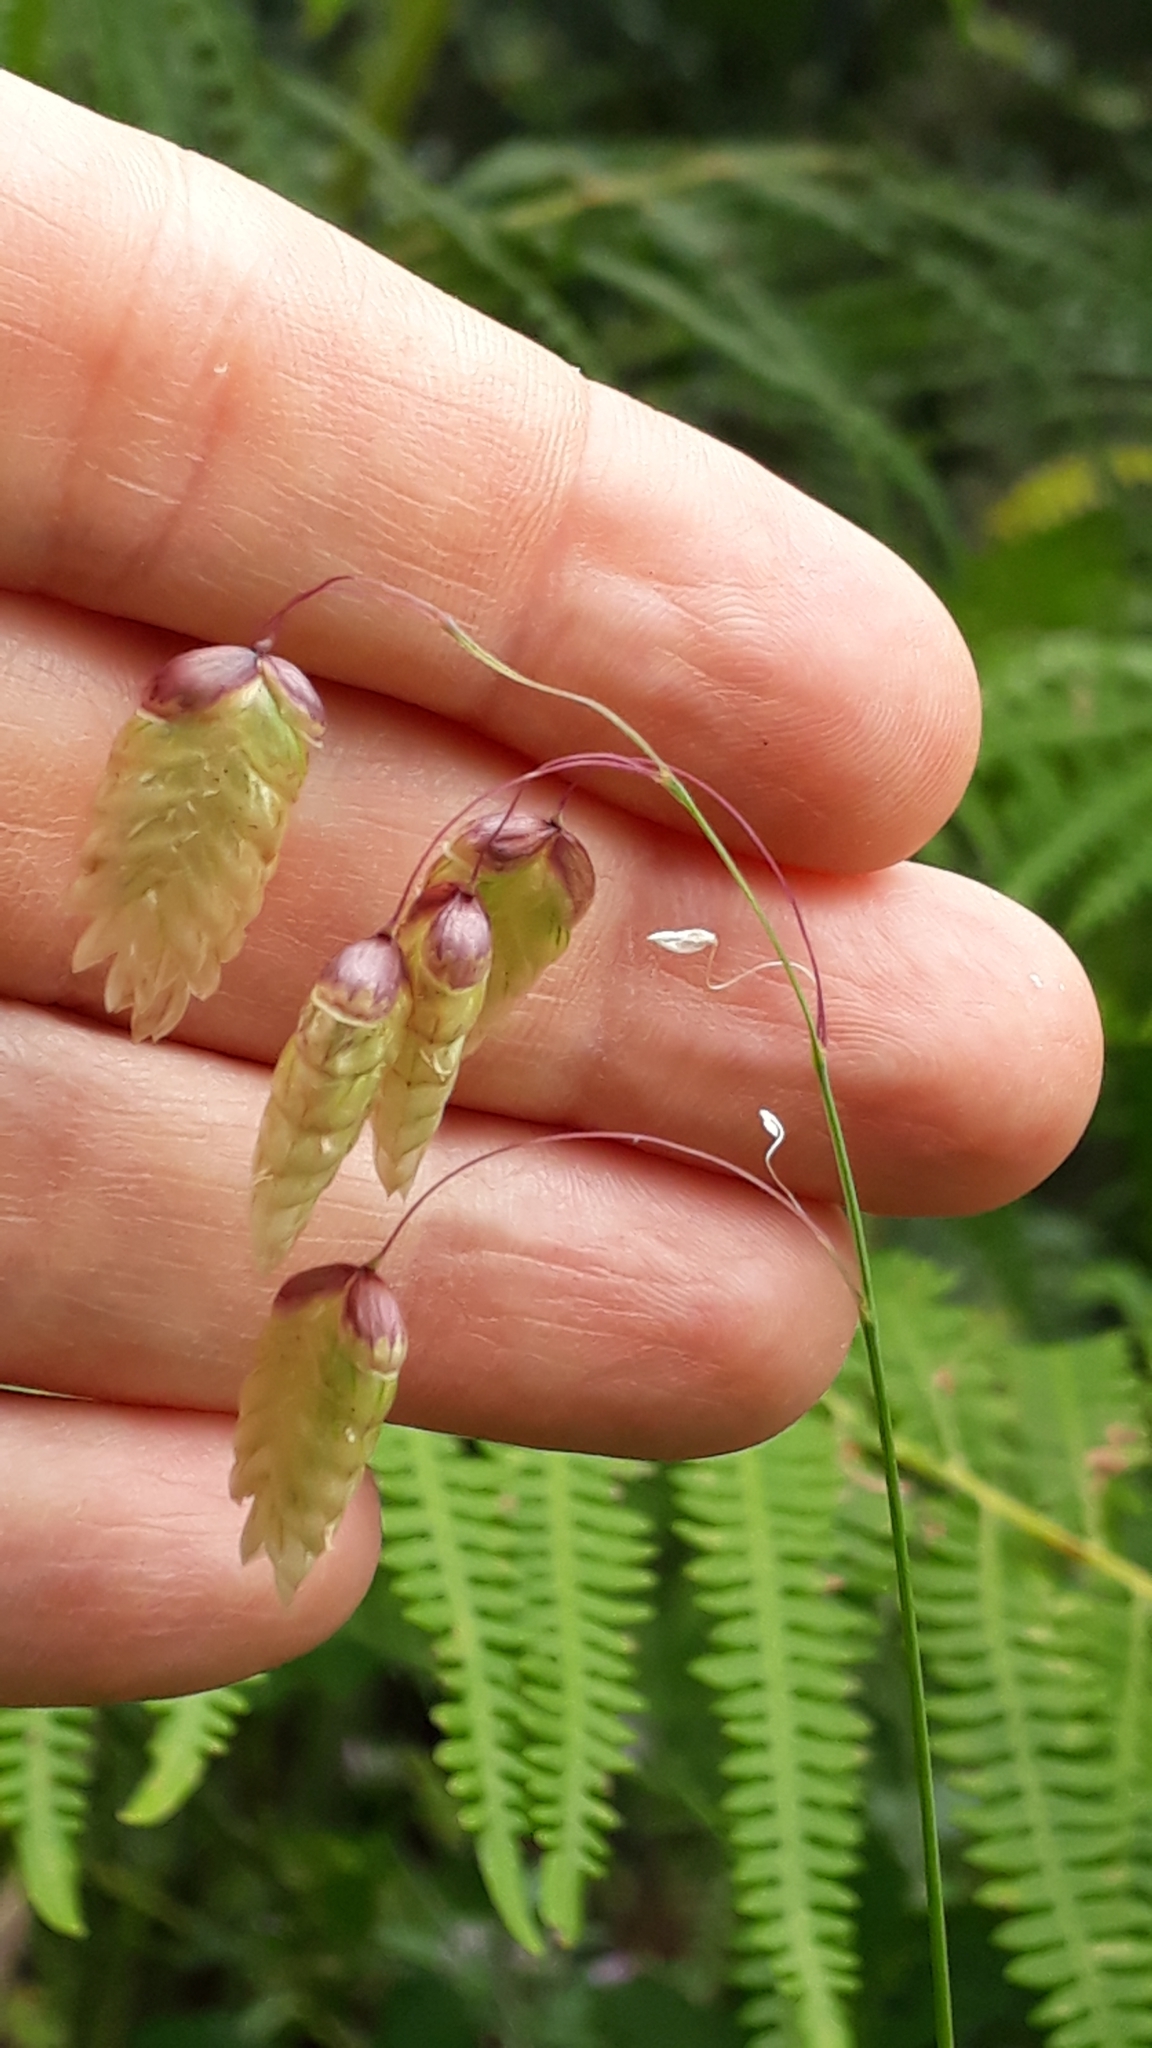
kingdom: Plantae
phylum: Tracheophyta
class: Liliopsida
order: Poales
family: Poaceae
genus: Briza
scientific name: Briza maxima
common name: Big quakinggrass
